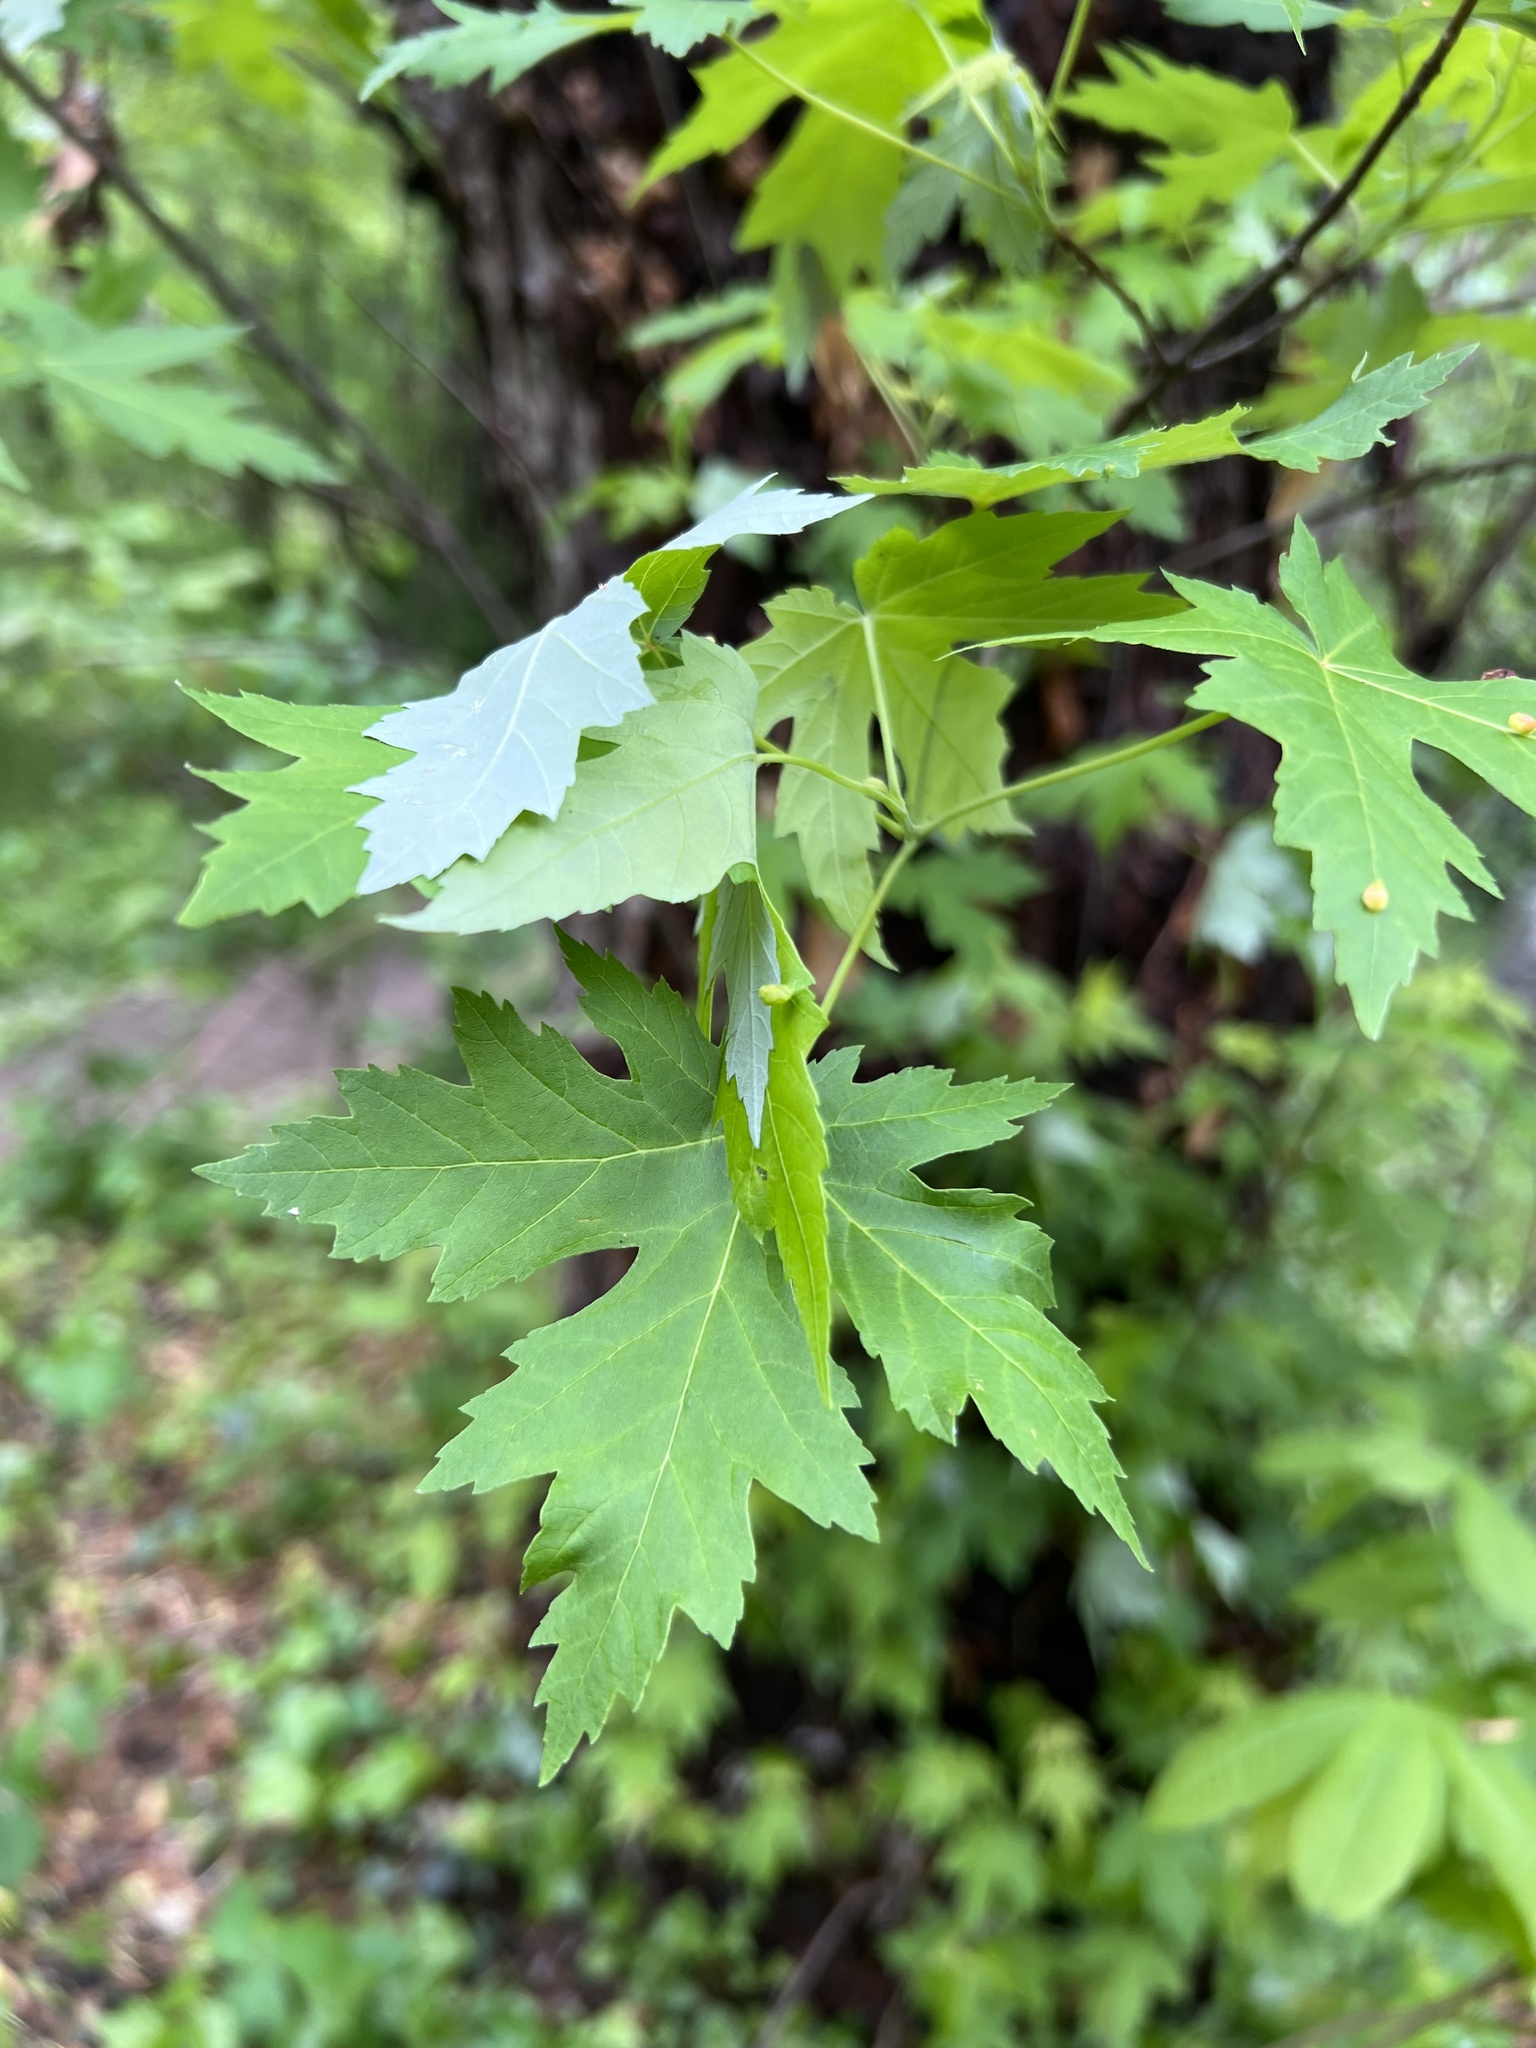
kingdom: Plantae
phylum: Tracheophyta
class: Magnoliopsida
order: Sapindales
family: Sapindaceae
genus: Acer
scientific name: Acer saccharinum
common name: Silver maple
